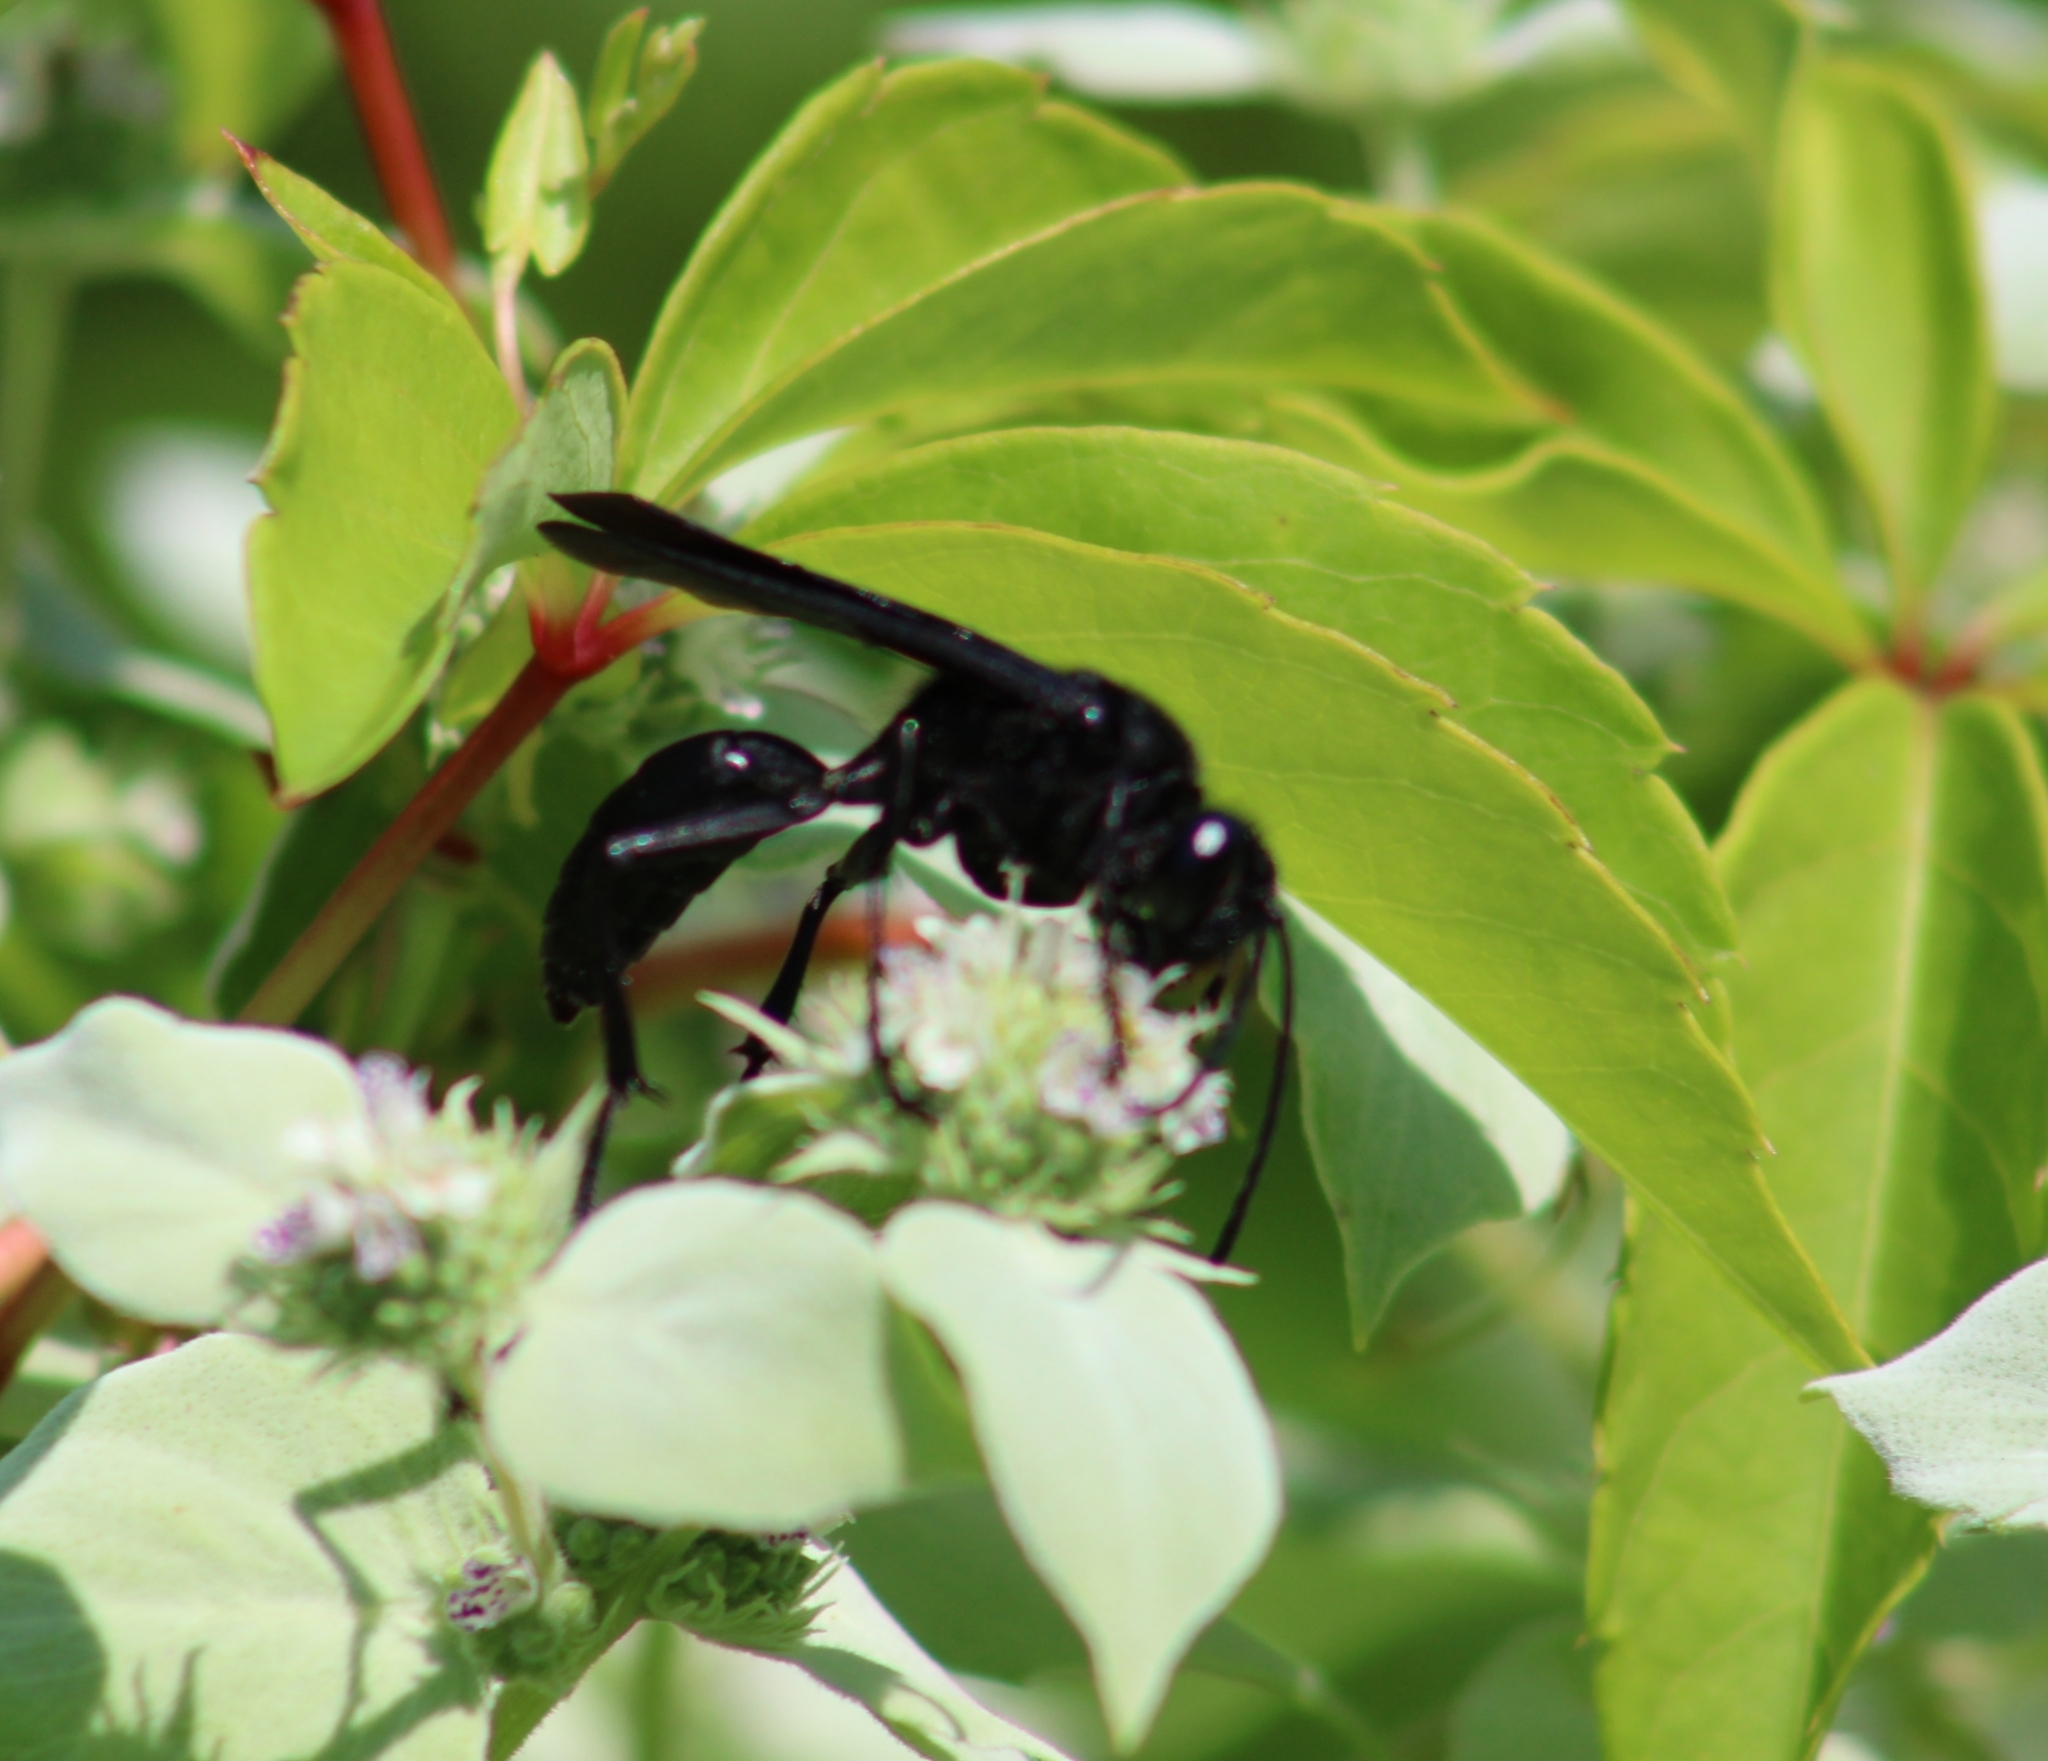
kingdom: Animalia
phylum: Arthropoda
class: Insecta
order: Hymenoptera
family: Sphecidae
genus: Sphex
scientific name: Sphex pensylvanicus
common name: Great black digger wasp
